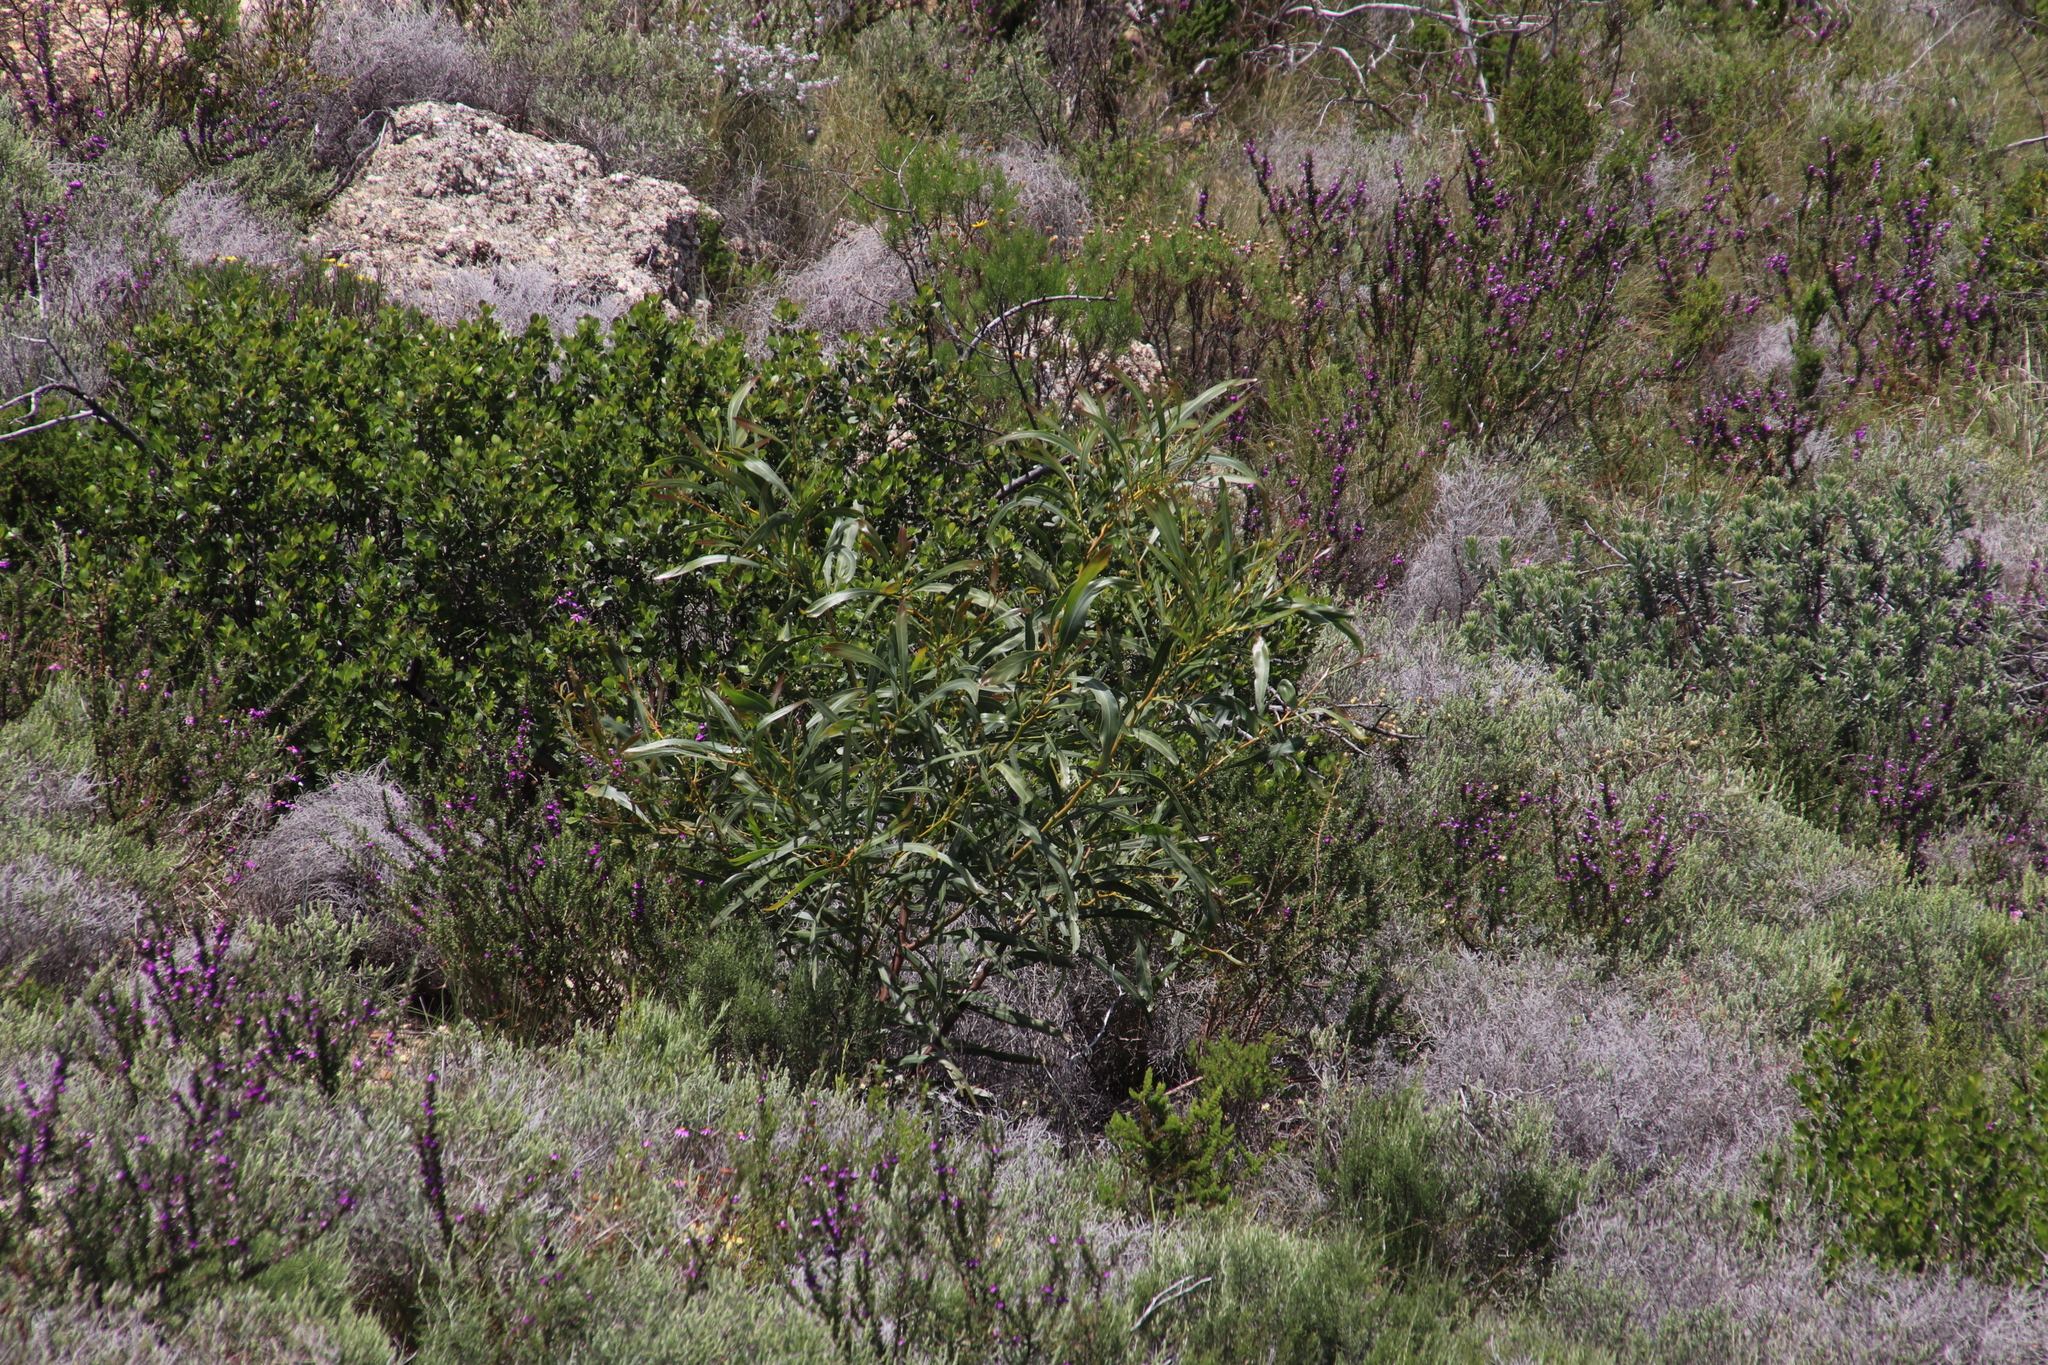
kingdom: Plantae
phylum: Tracheophyta
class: Magnoliopsida
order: Fabales
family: Fabaceae
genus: Acacia
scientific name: Acacia saligna
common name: Orange wattle
